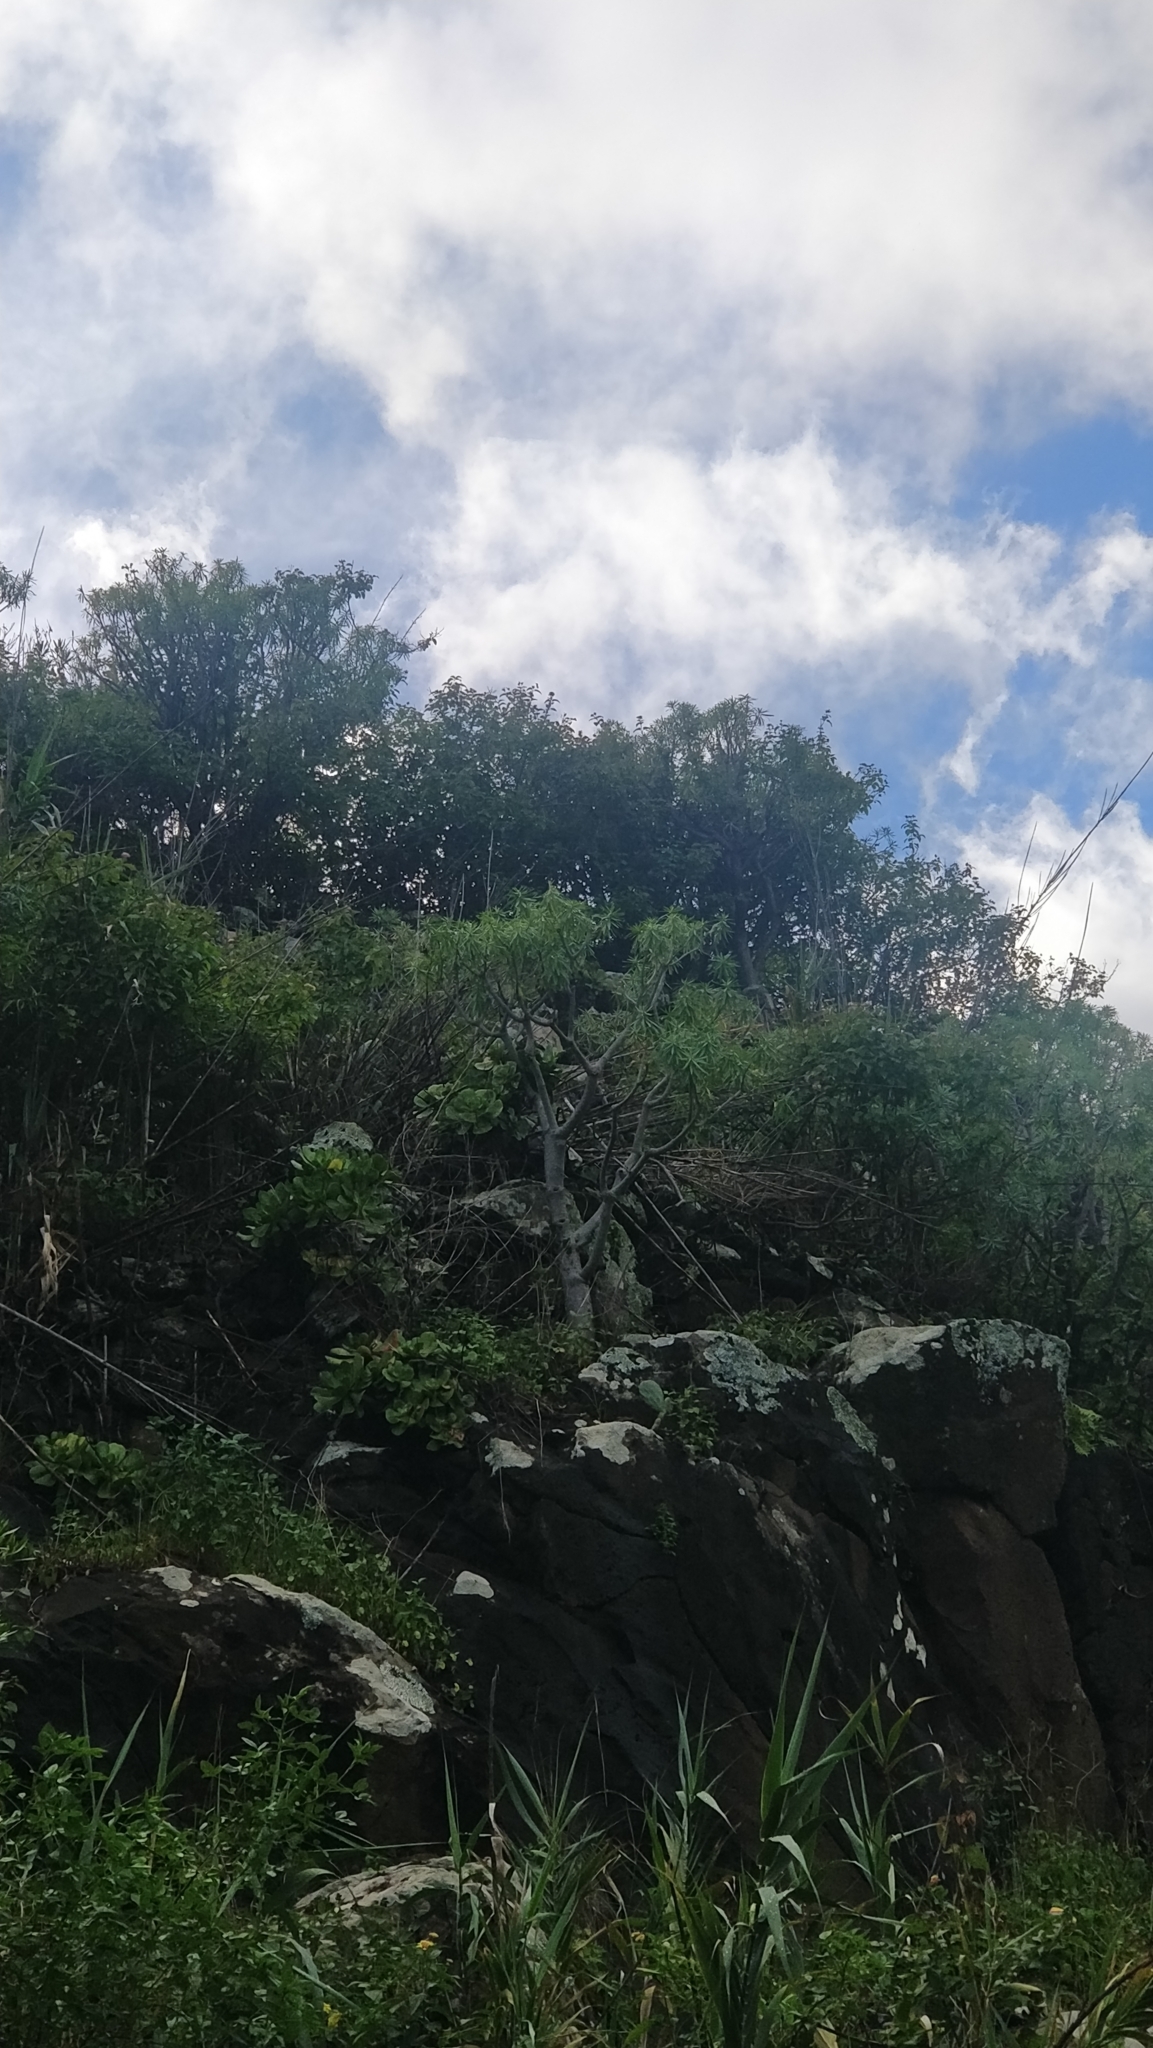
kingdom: Plantae
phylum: Tracheophyta
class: Magnoliopsida
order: Malpighiales
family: Euphorbiaceae
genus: Euphorbia
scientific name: Euphorbia piscatoria
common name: Fish-stunning spurge
